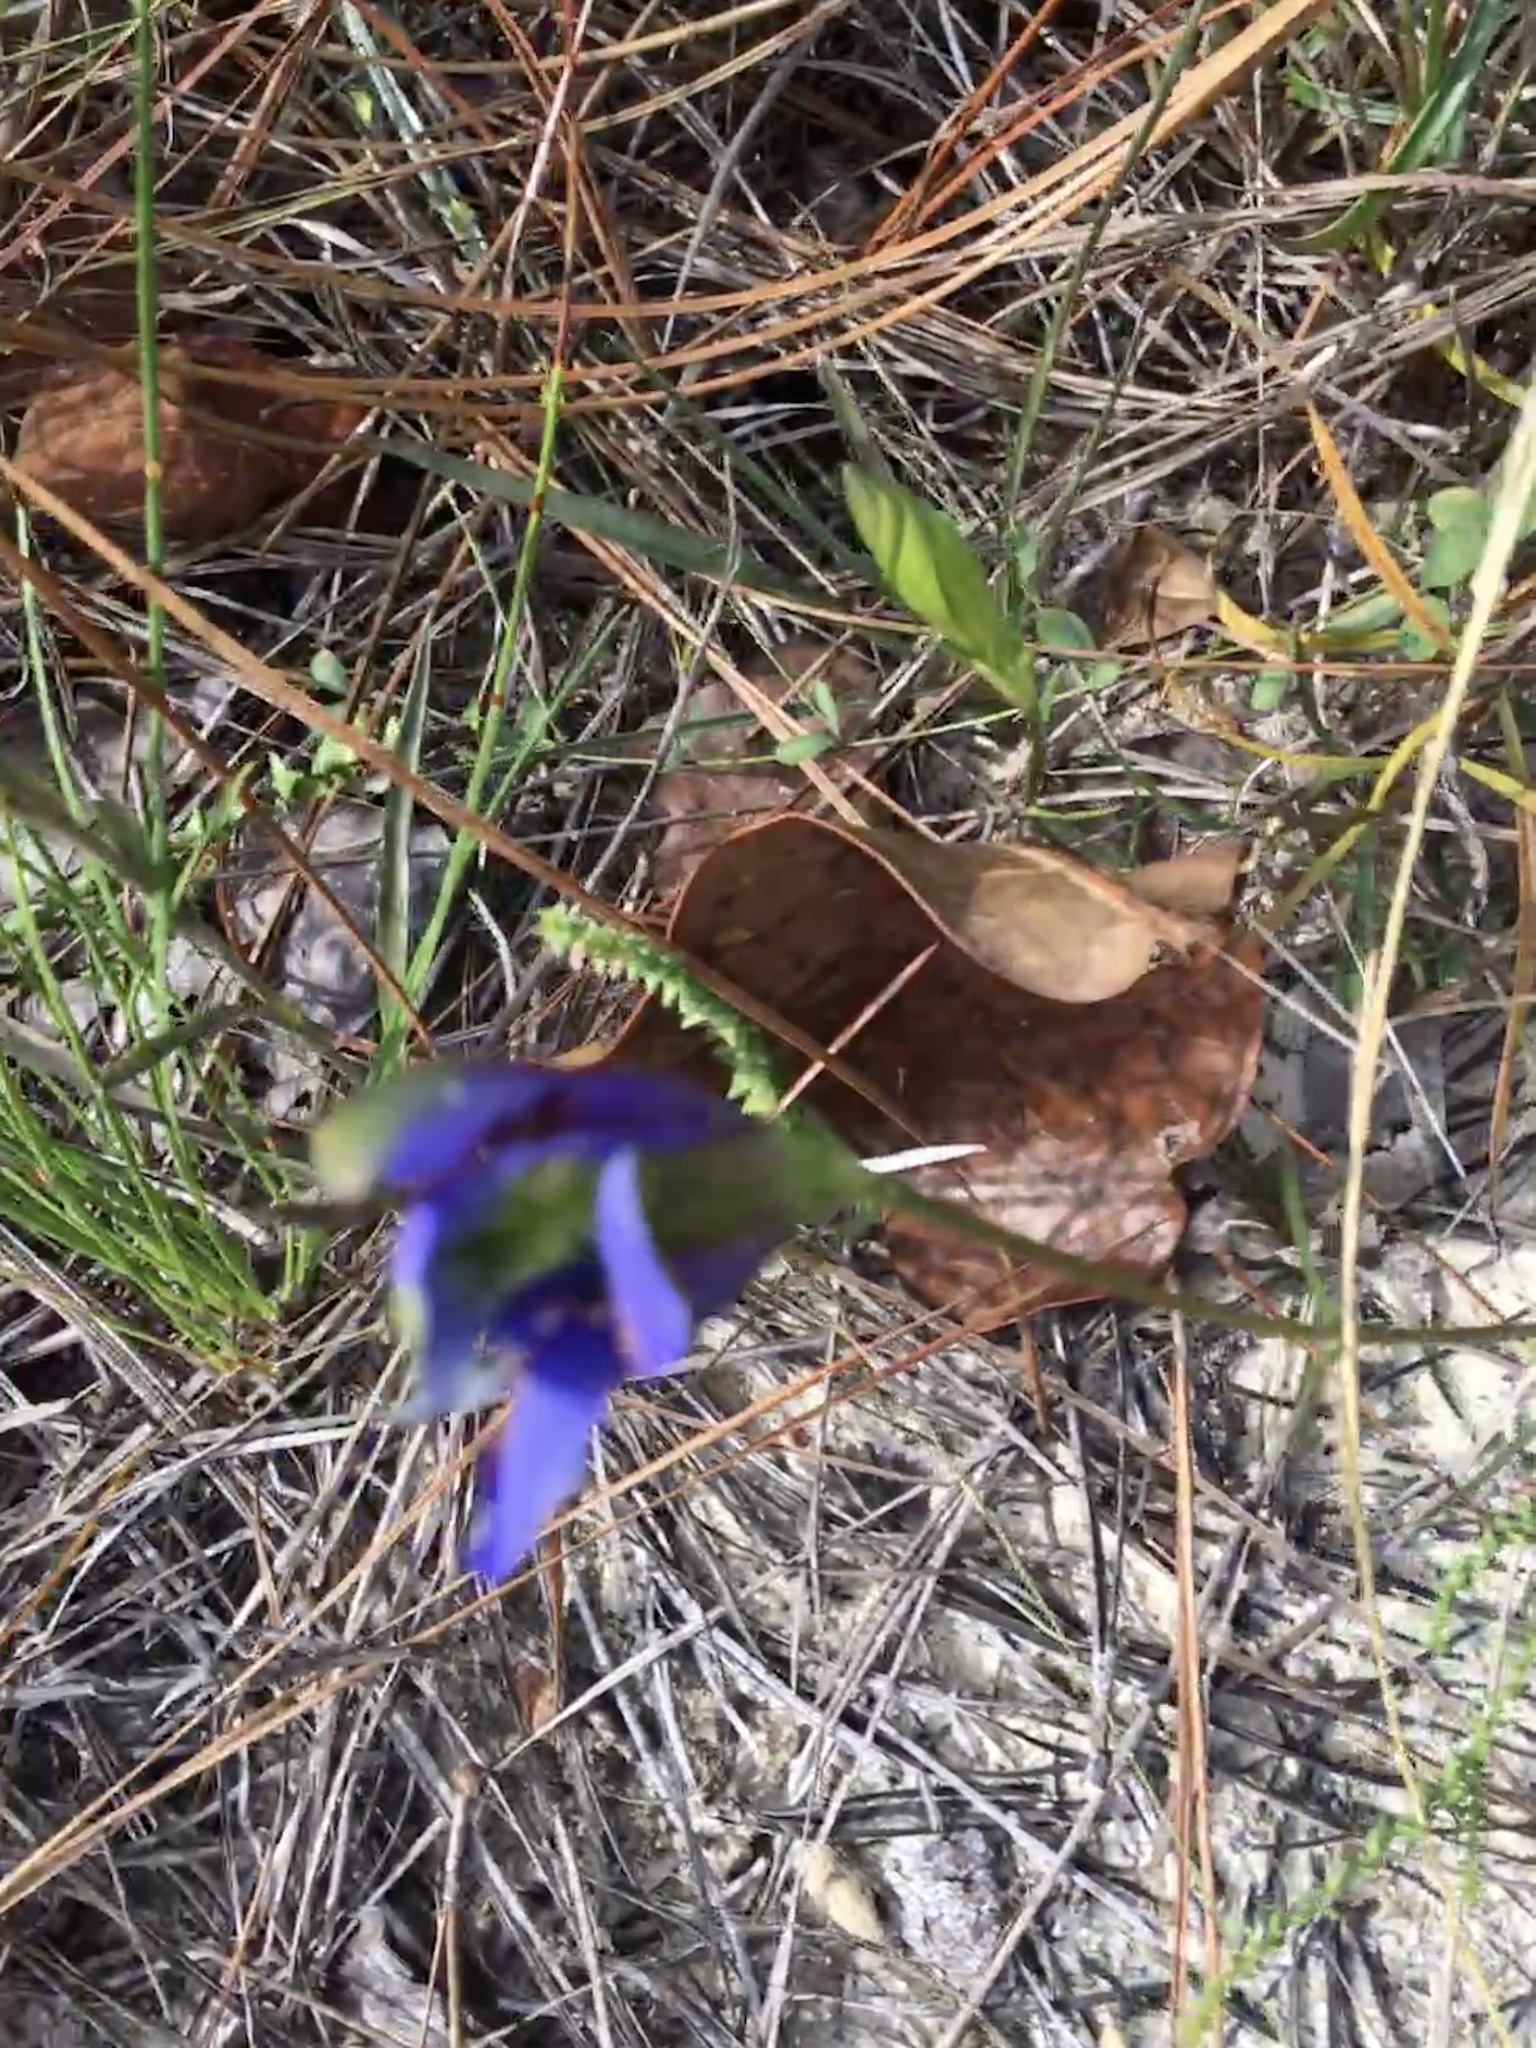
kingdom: Plantae
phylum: Tracheophyta
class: Magnoliopsida
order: Gentianales
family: Gentianaceae
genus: Gentiana
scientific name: Gentiana autumnalis
